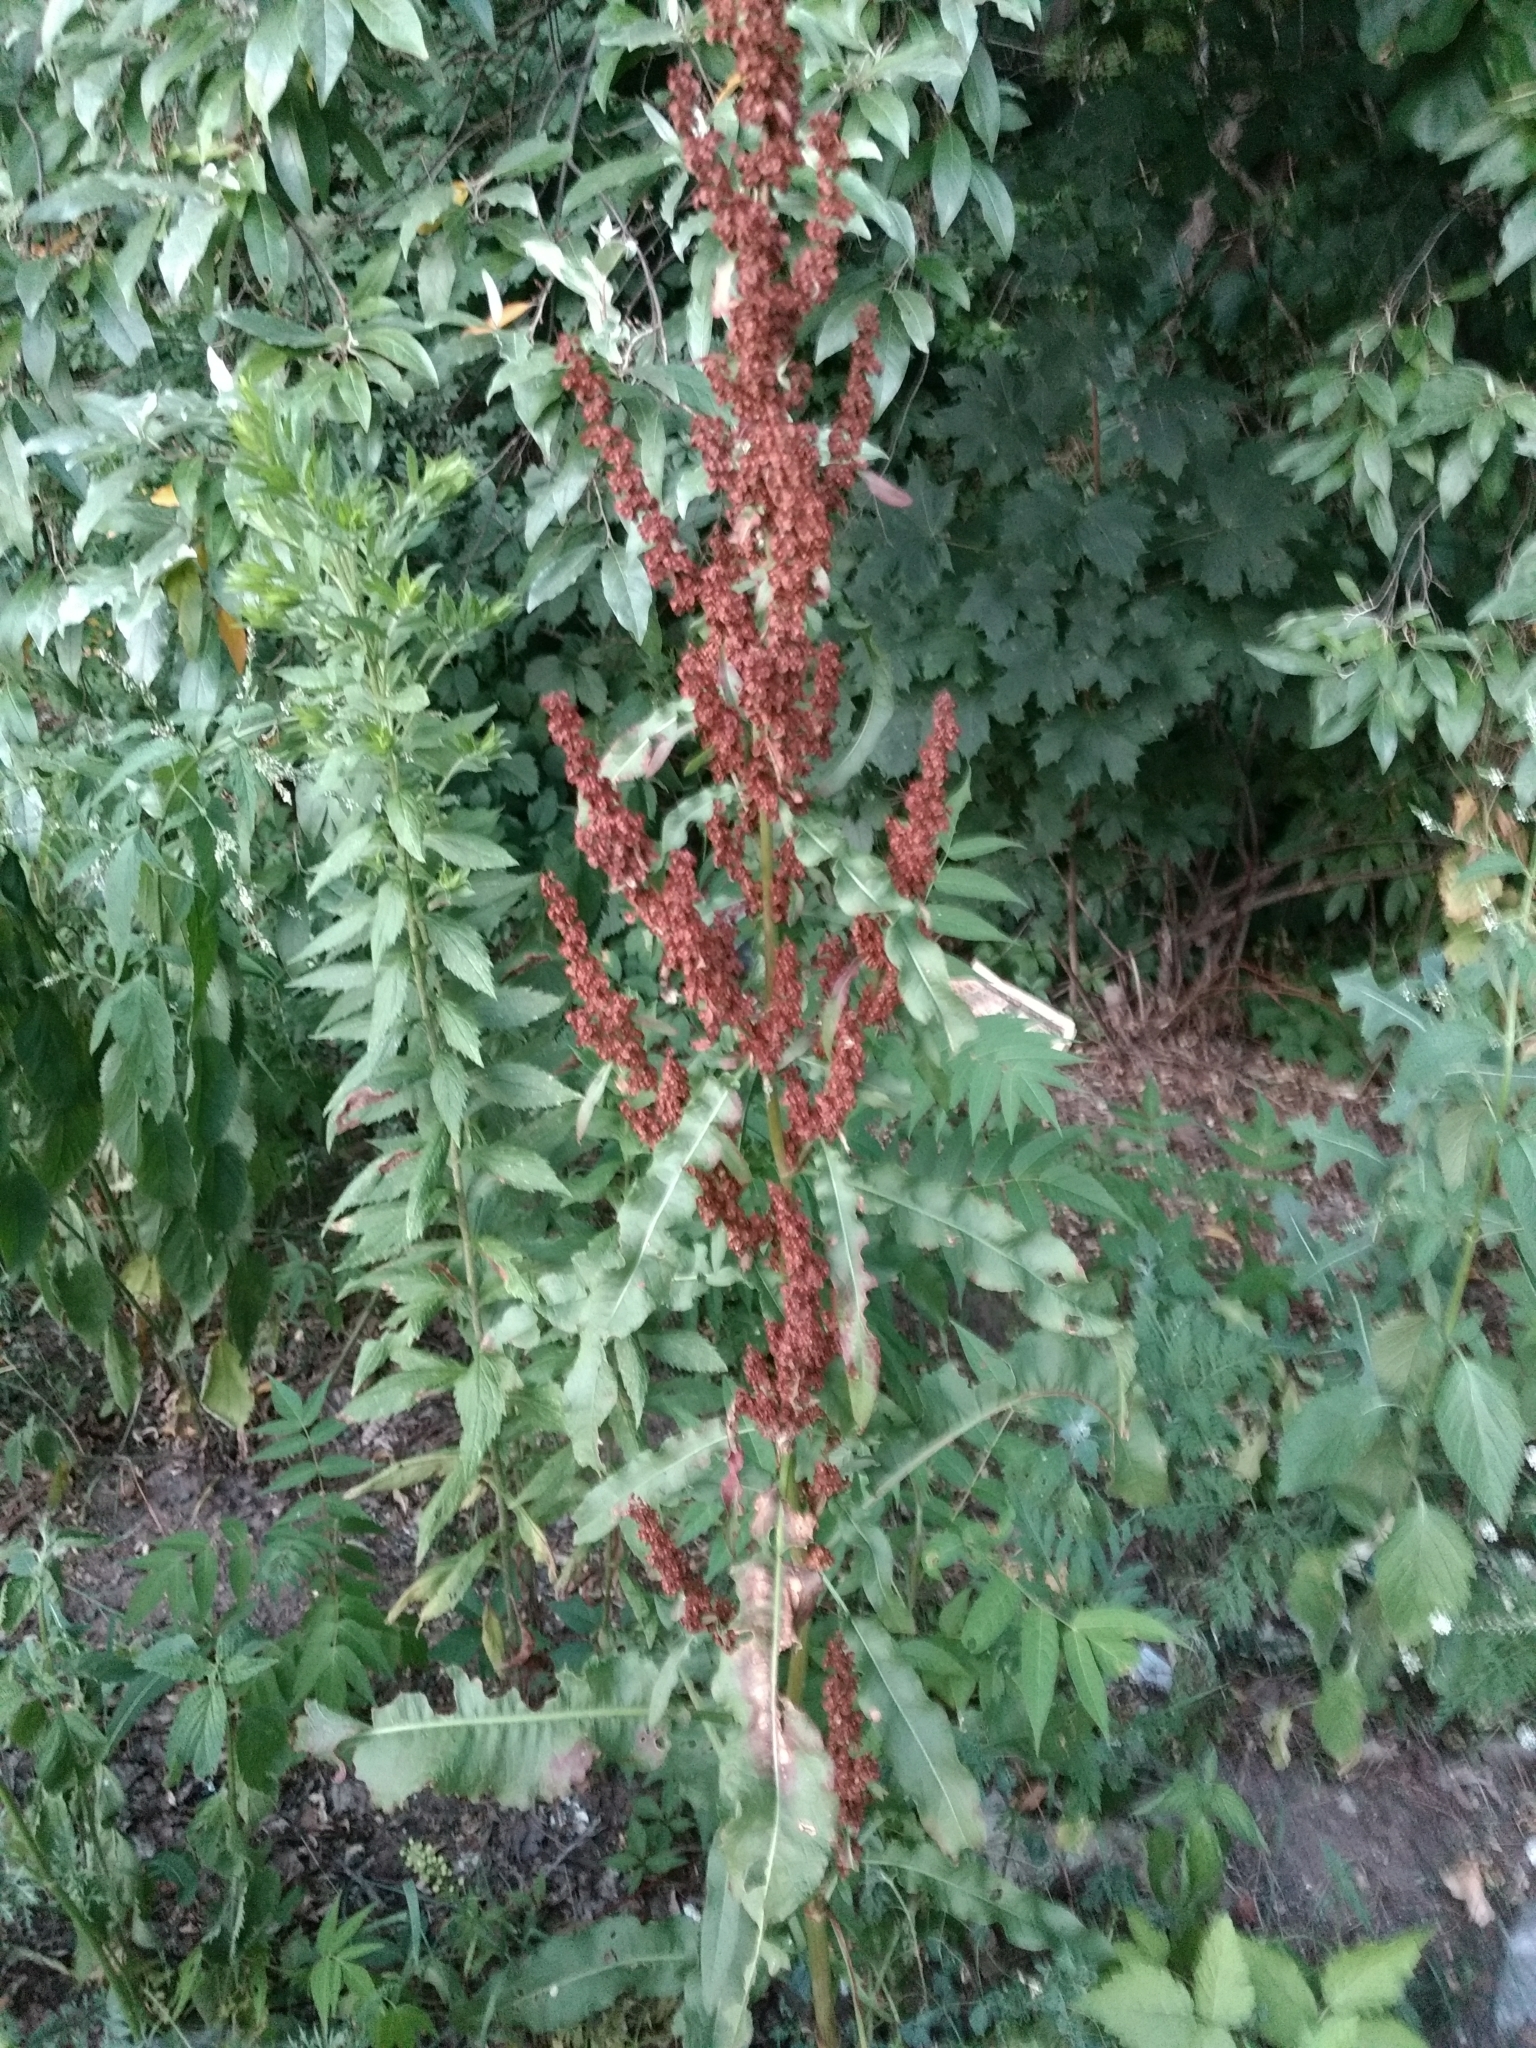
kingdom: Plantae
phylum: Tracheophyta
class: Magnoliopsida
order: Caryophyllales
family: Polygonaceae
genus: Rumex
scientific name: Rumex crispus
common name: Curled dock
